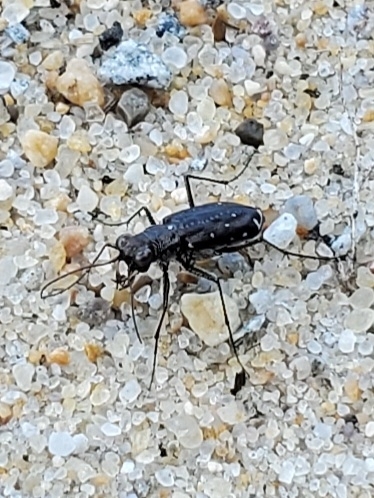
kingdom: Animalia
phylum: Arthropoda
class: Insecta
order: Coleoptera
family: Carabidae
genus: Cicindela
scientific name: Cicindela punctulata
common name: Punctured tiger beetle
